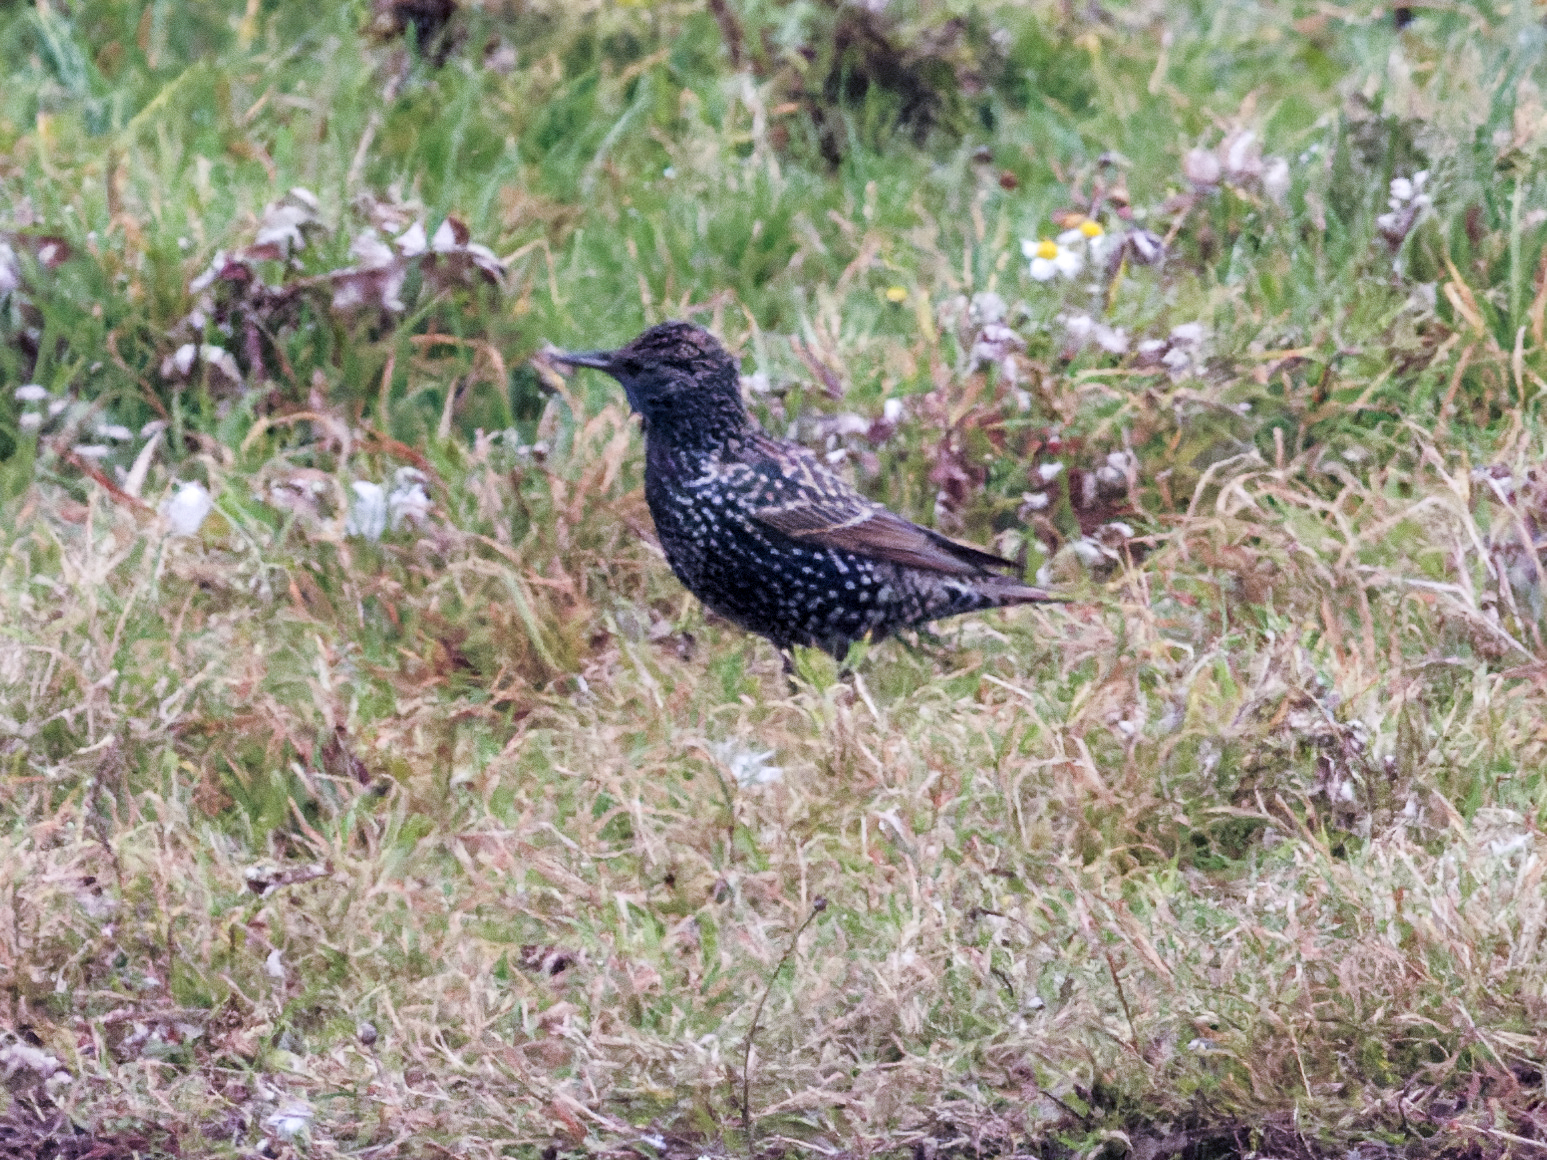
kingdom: Animalia
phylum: Chordata
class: Aves
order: Passeriformes
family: Sturnidae
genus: Sturnus
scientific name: Sturnus vulgaris
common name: Common starling
